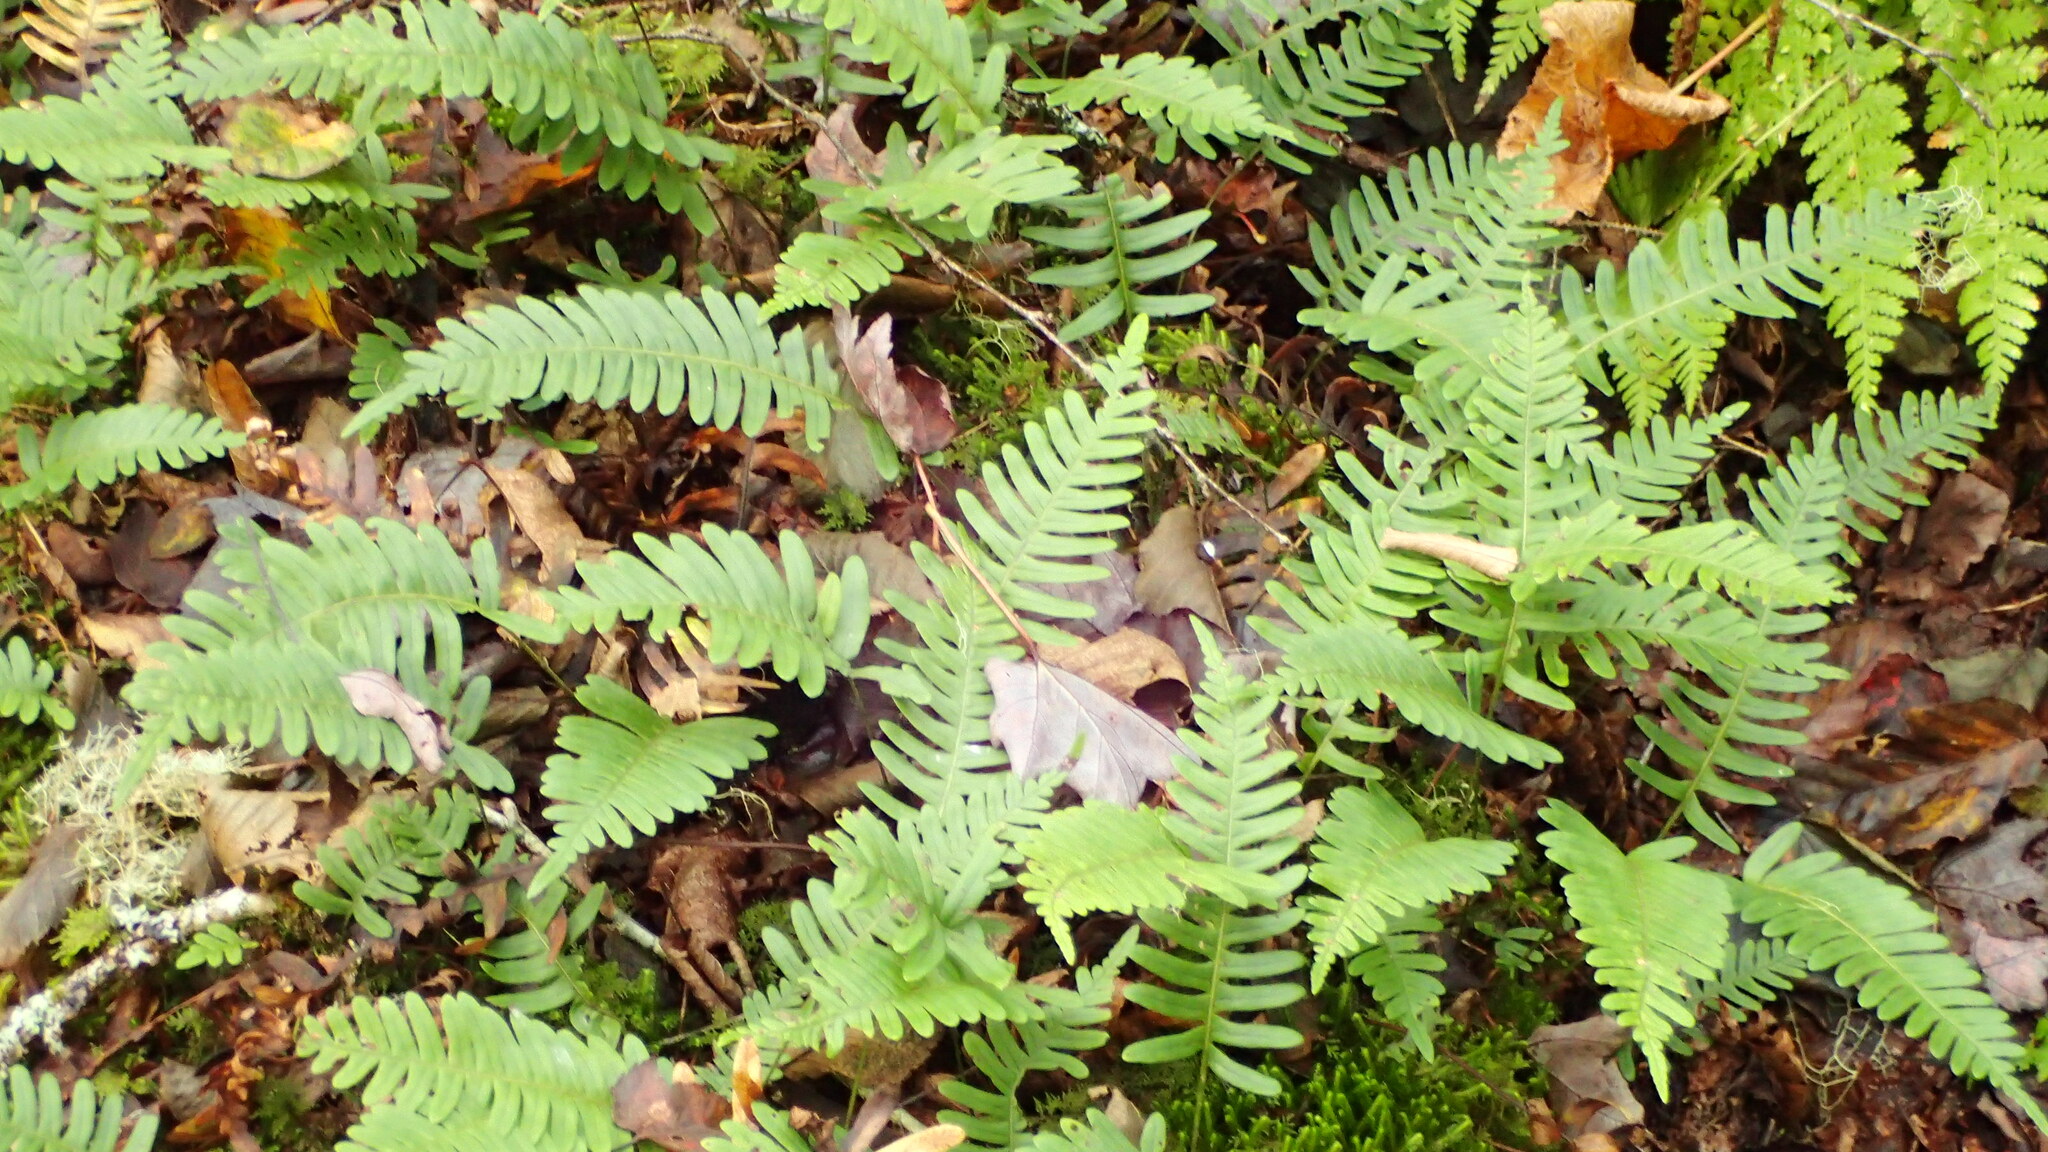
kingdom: Plantae
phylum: Tracheophyta
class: Polypodiopsida
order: Polypodiales
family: Polypodiaceae
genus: Polypodium
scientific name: Polypodium virginianum
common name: American wall fern
